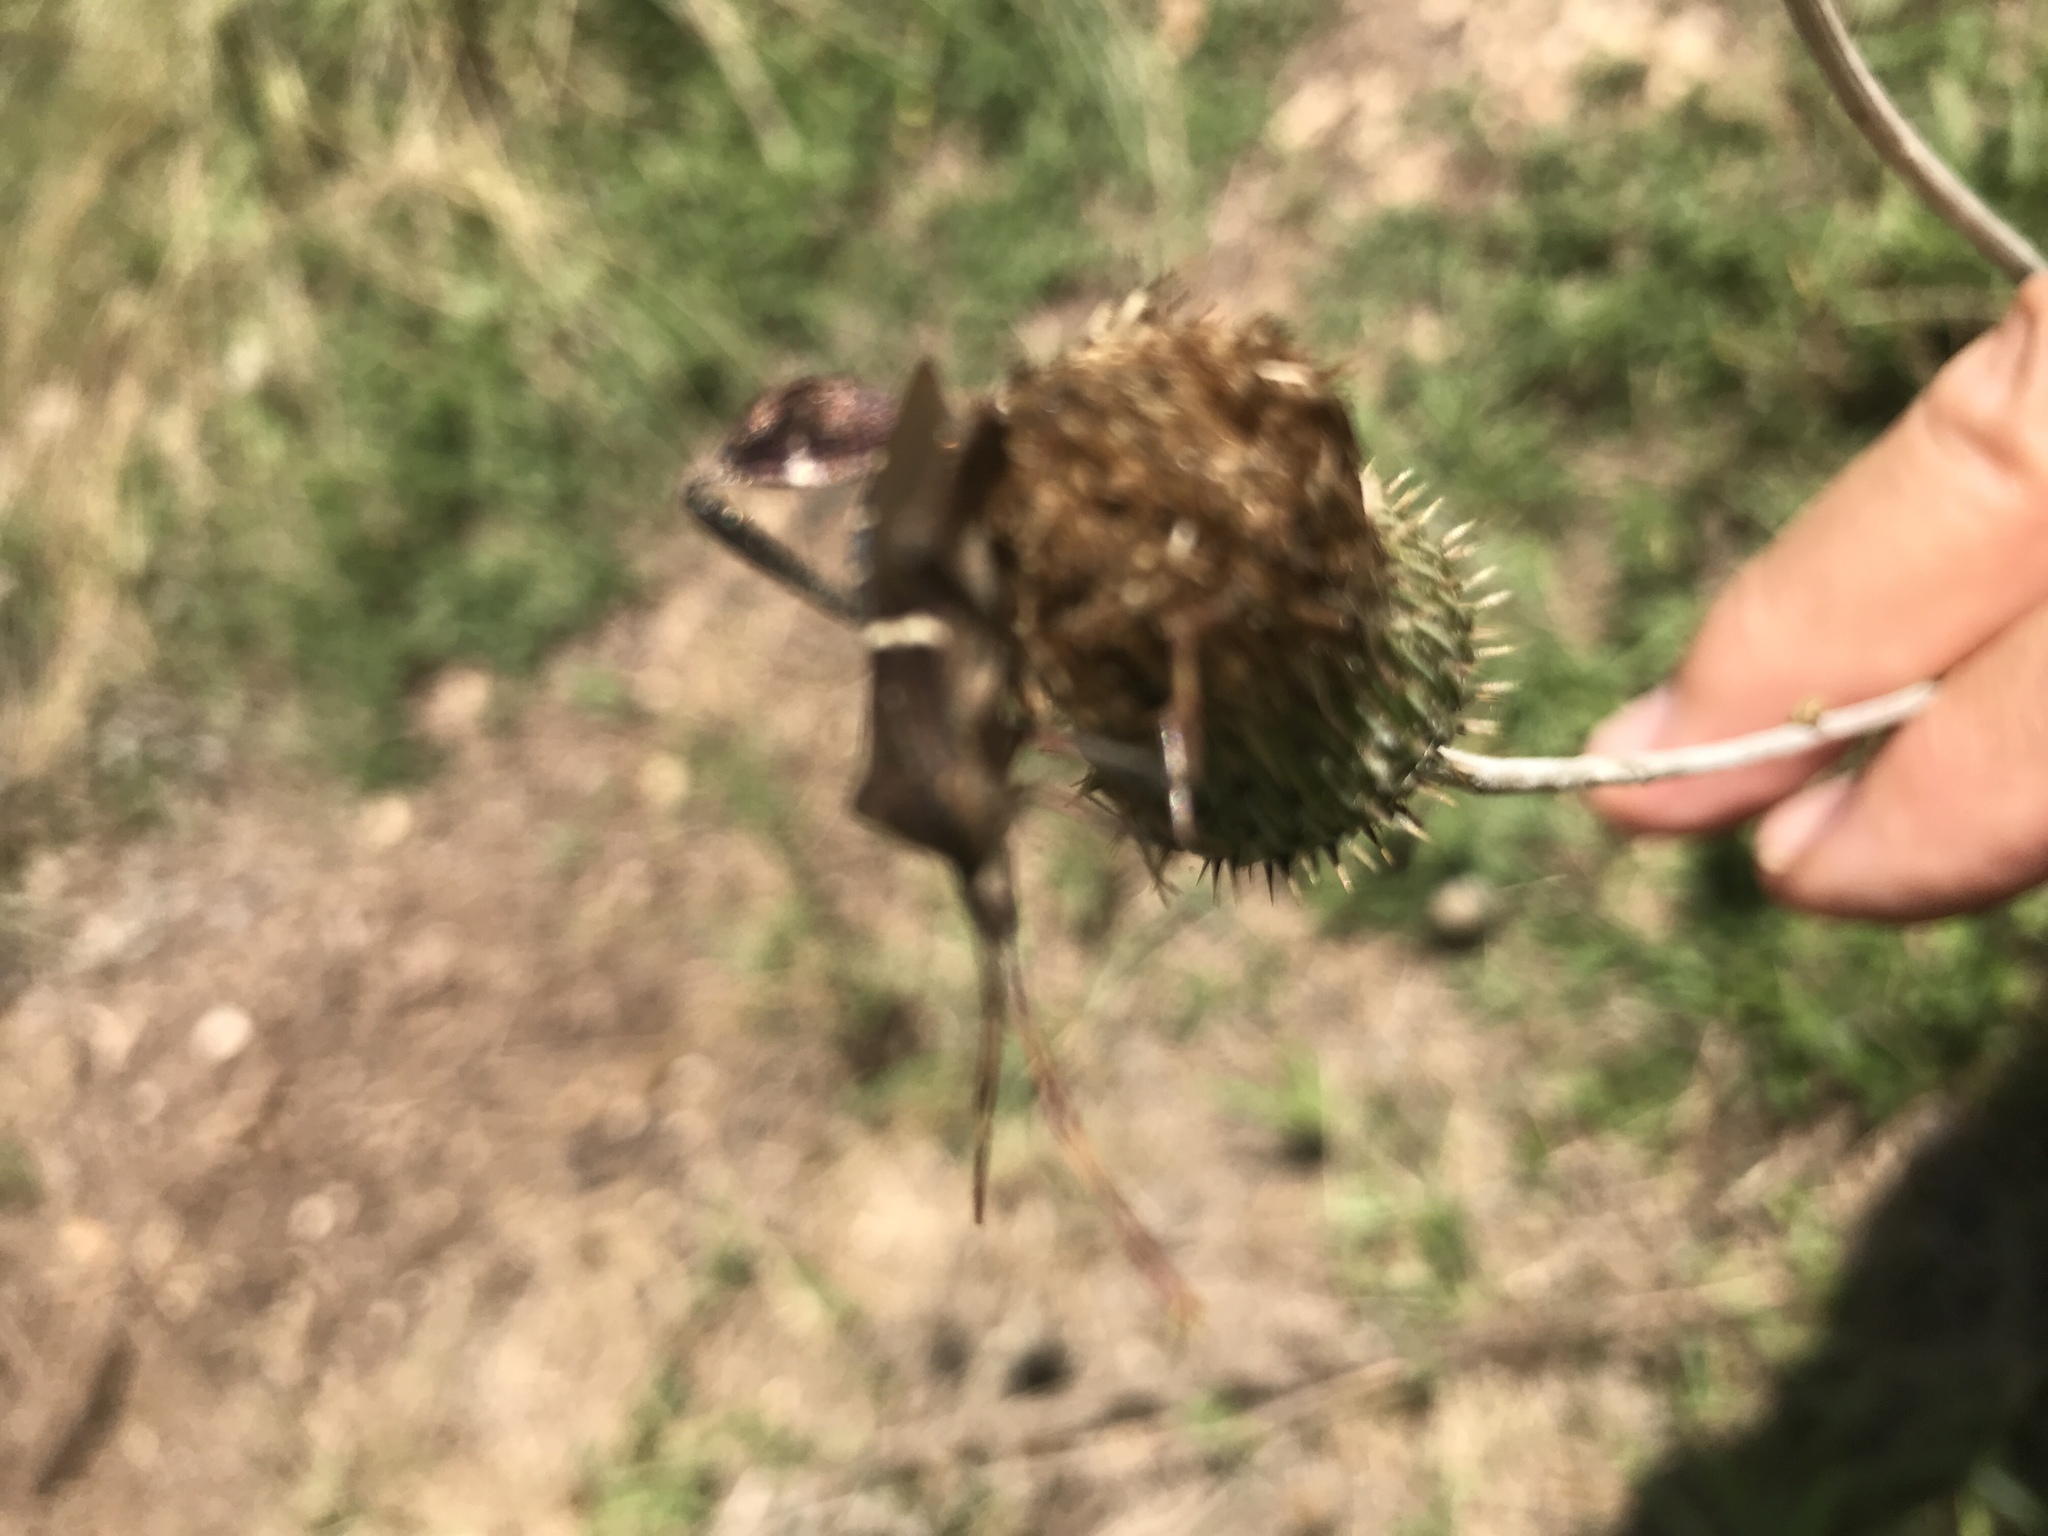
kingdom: Animalia
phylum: Arthropoda
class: Insecta
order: Hemiptera
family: Coreidae
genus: Leptoglossus
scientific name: Leptoglossus phyllopus
